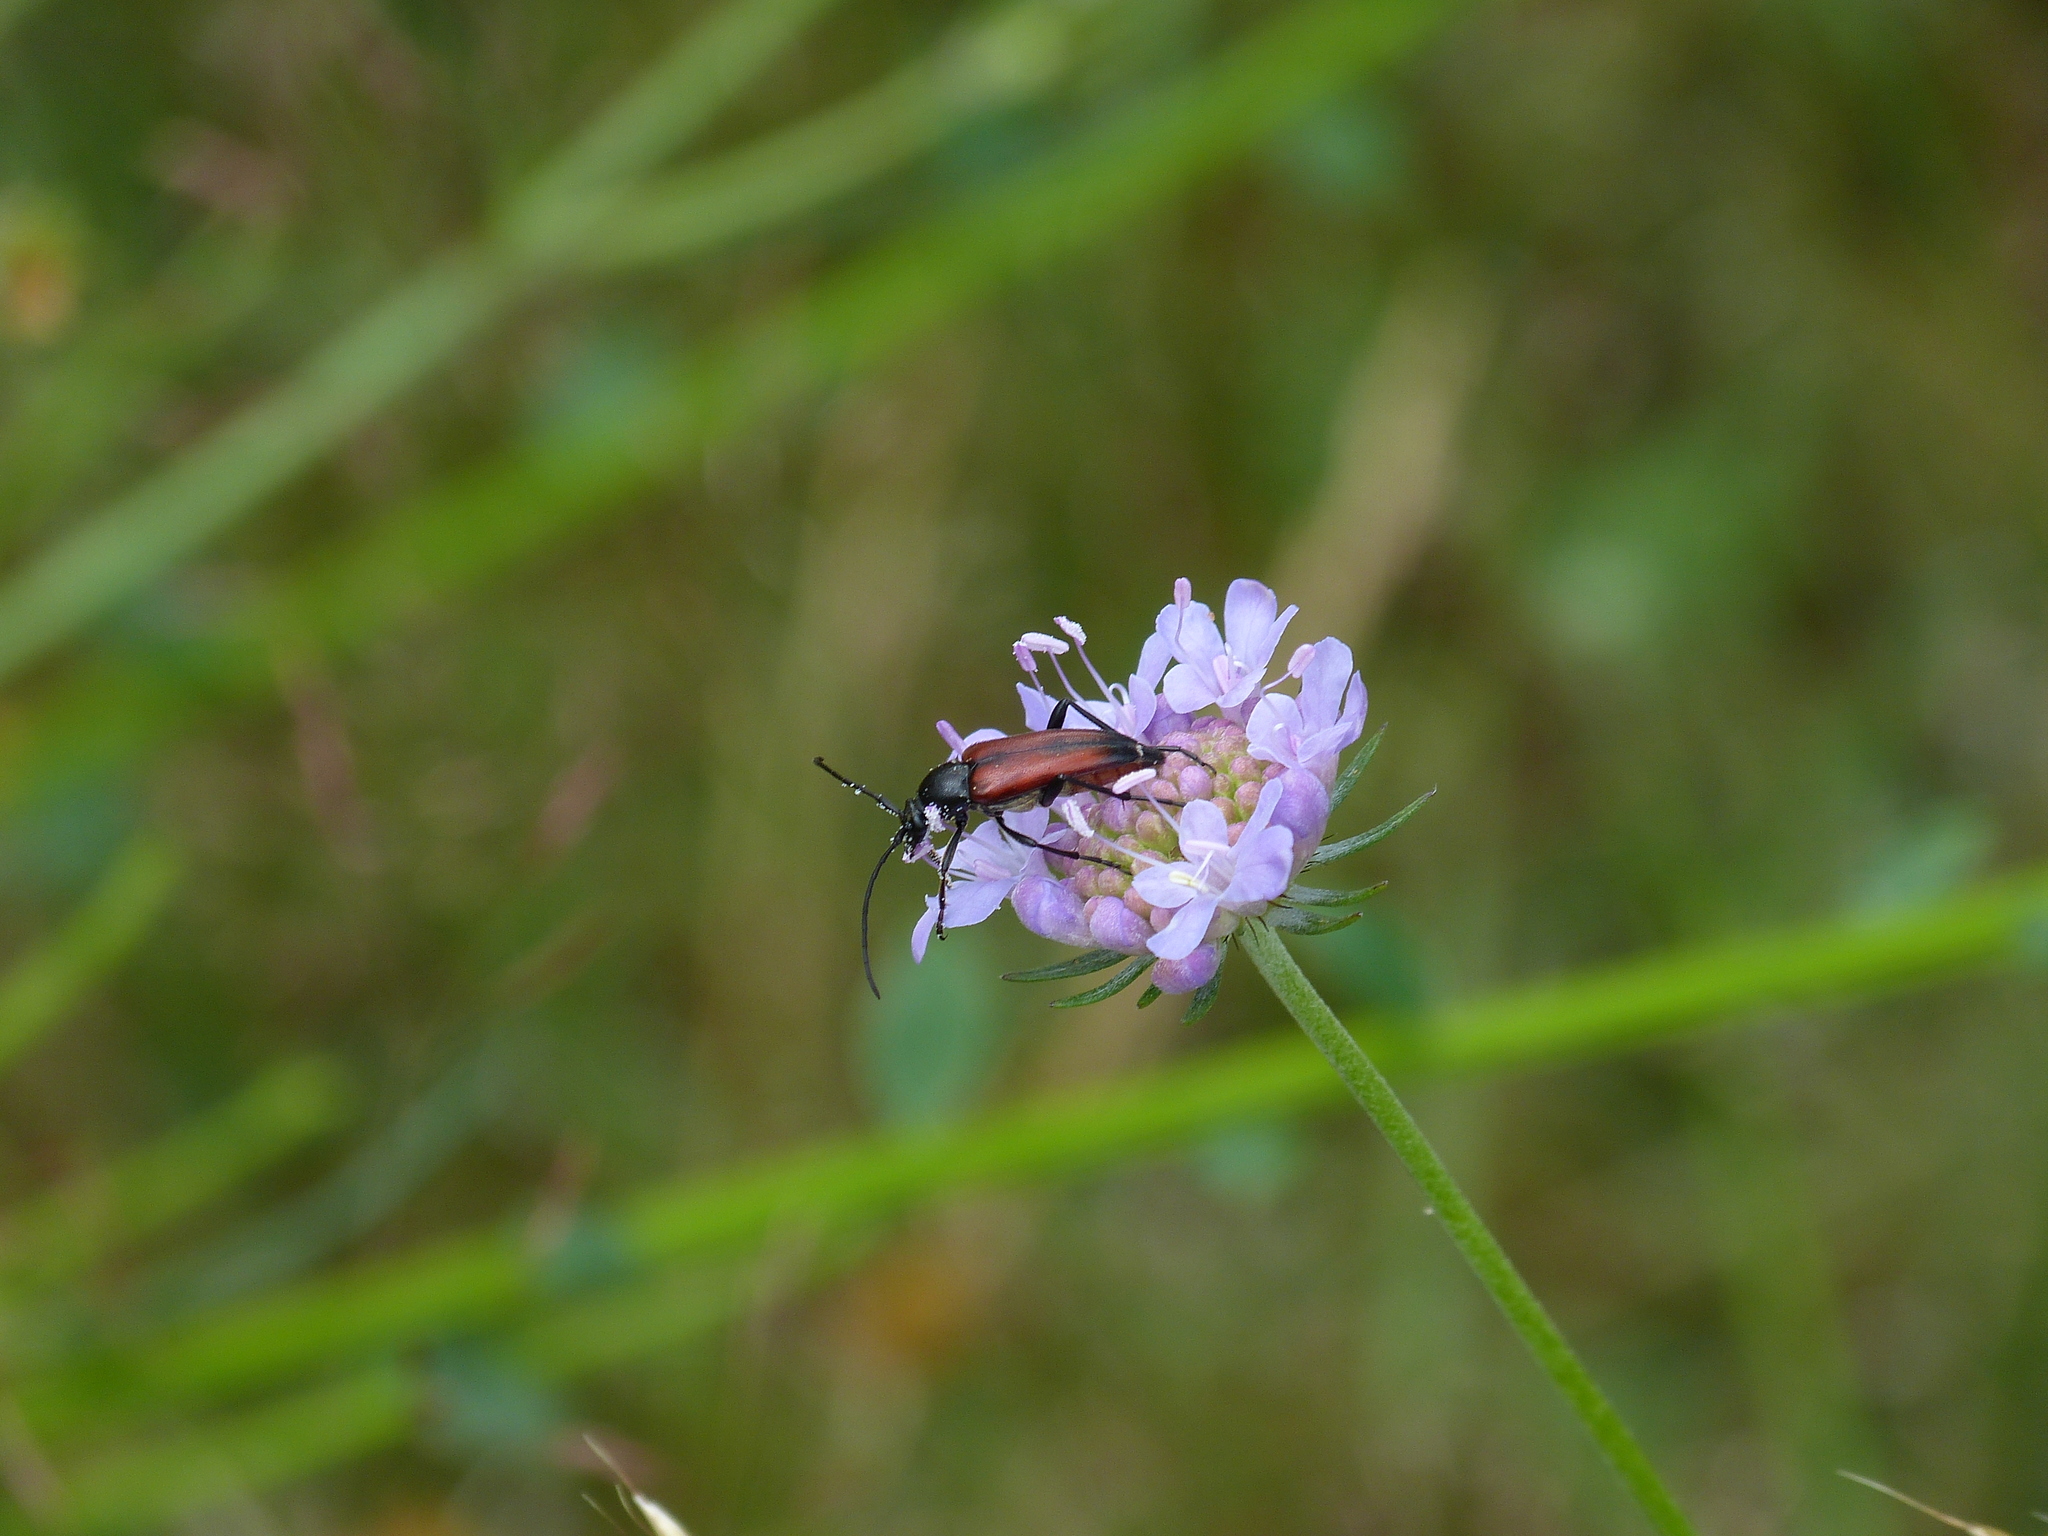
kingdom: Animalia
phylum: Arthropoda
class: Insecta
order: Coleoptera
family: Cerambycidae
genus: Stenurella
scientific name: Stenurella bifasciata
